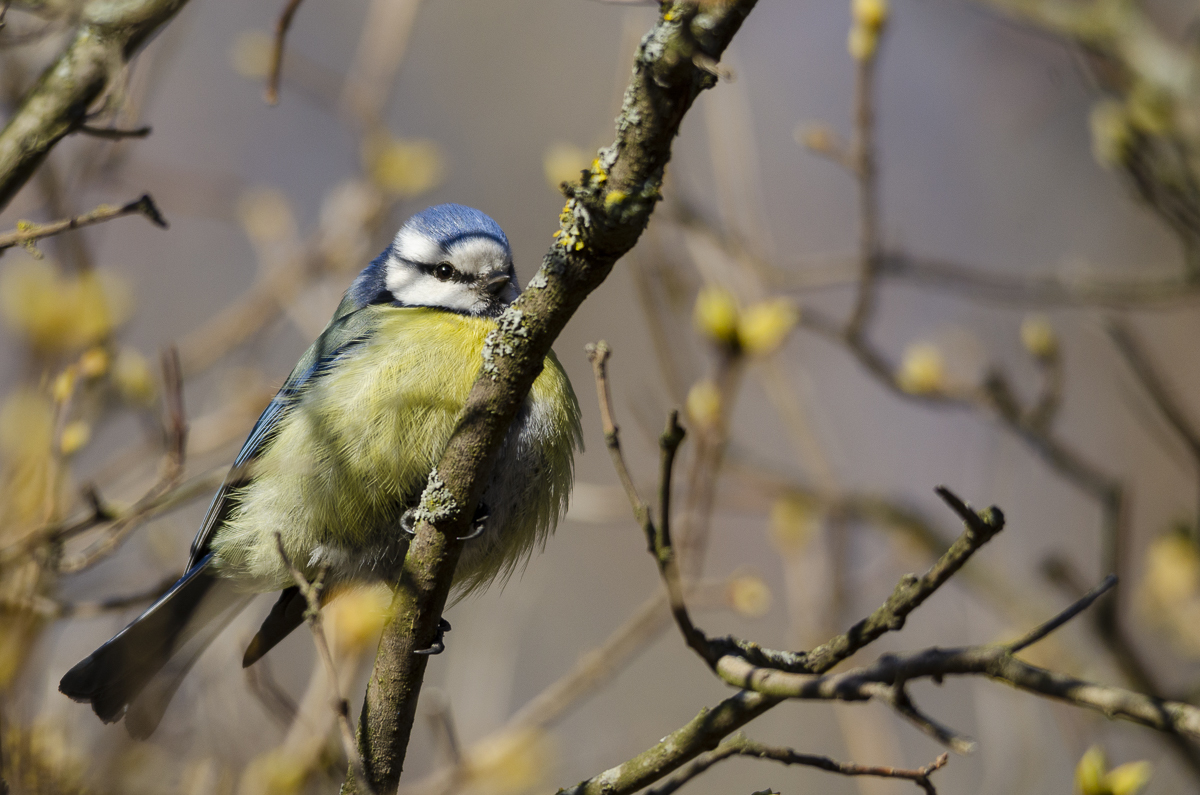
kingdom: Animalia
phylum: Chordata
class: Aves
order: Passeriformes
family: Paridae
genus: Cyanistes
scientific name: Cyanistes caeruleus
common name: Eurasian blue tit
